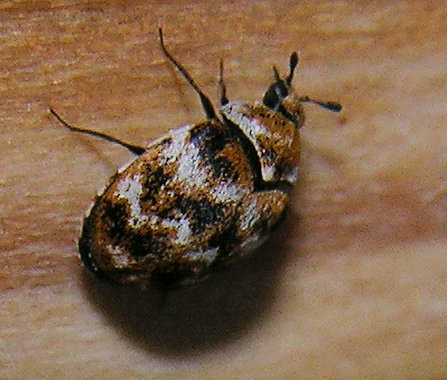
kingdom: Animalia
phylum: Arthropoda
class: Insecta
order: Coleoptera
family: Dermestidae
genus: Anthrenus
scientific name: Anthrenus verbasci
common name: Varied carpet beetle
